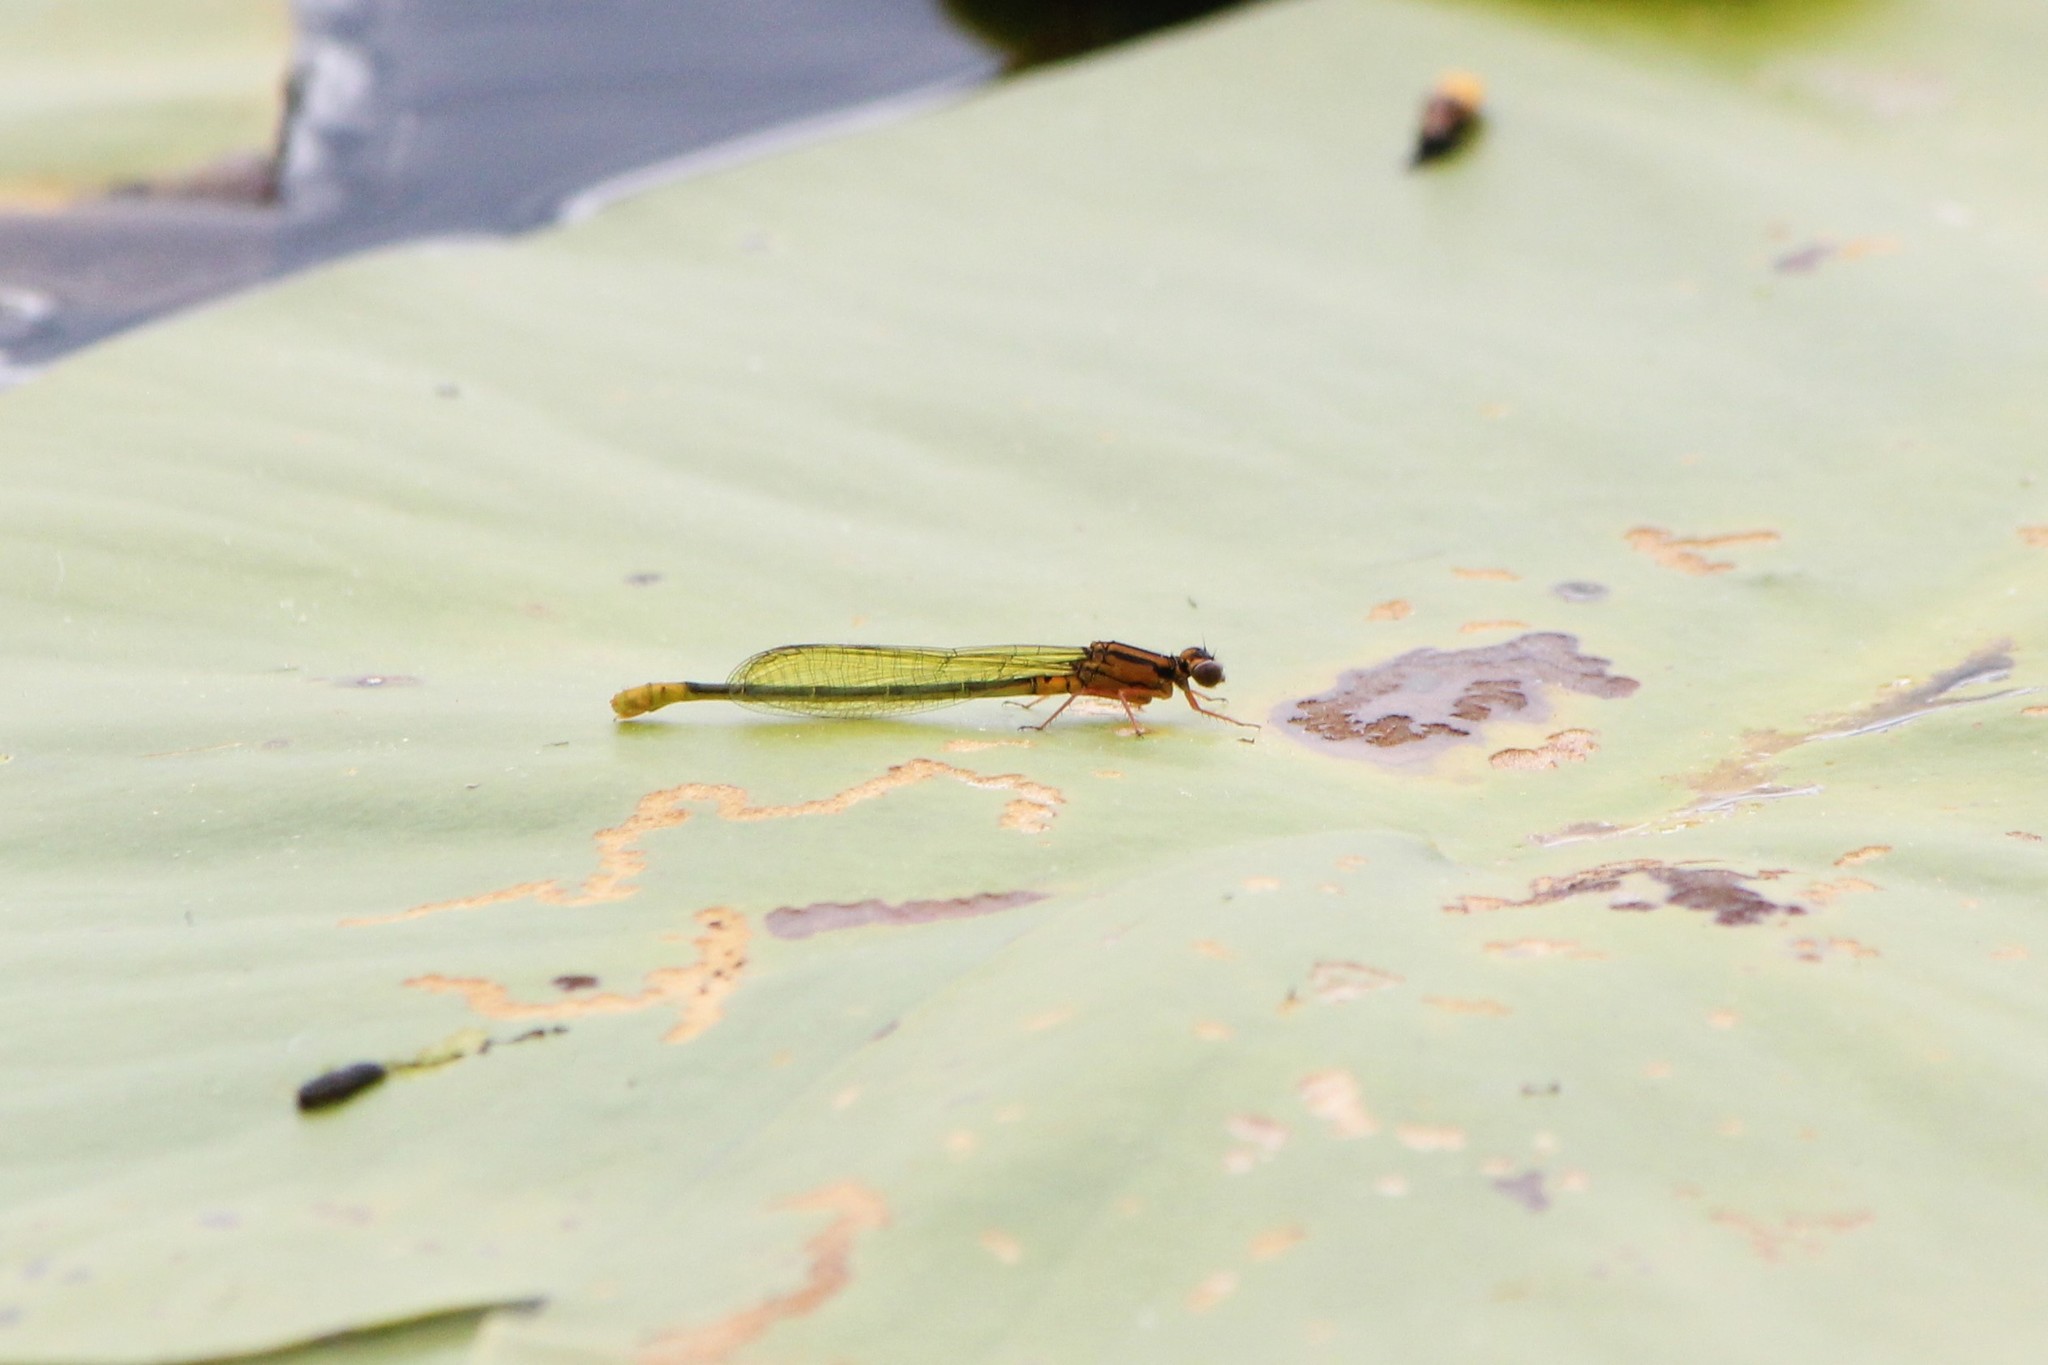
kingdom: Animalia
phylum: Arthropoda
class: Insecta
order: Odonata
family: Coenagrionidae
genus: Ischnura
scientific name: Ischnura kellicotti
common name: Lilypad forktail
